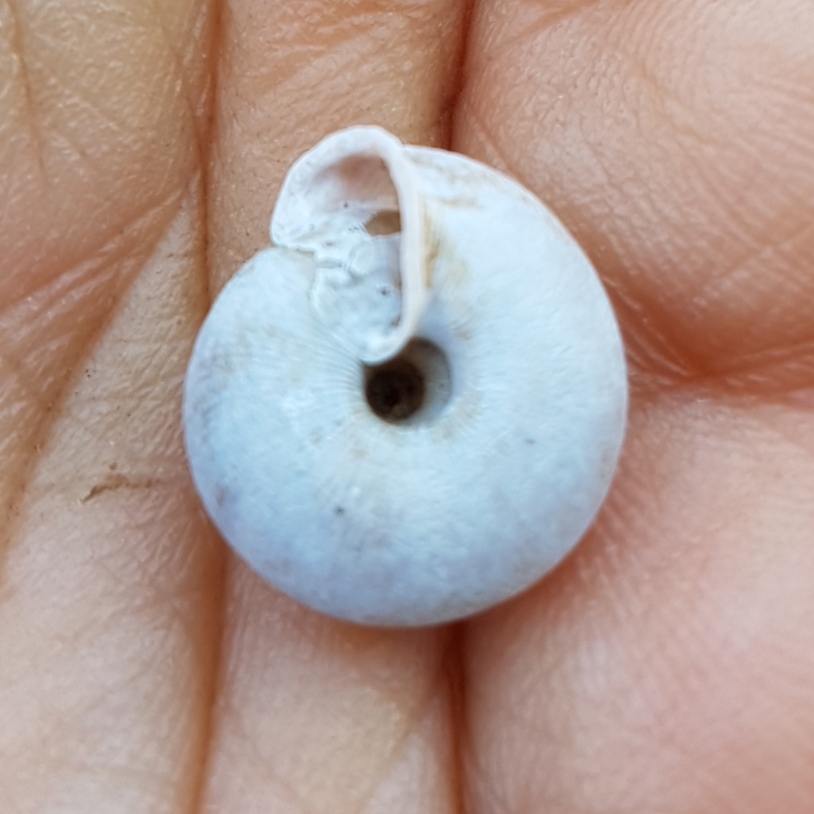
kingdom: Animalia
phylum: Mollusca
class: Gastropoda
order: Stylommatophora
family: Trissexodontidae
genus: Oestophora
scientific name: Oestophora barbella
